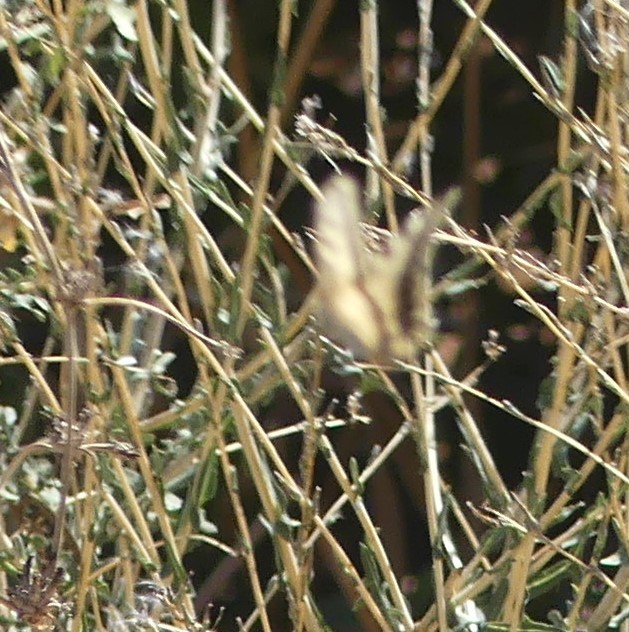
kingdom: Animalia
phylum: Arthropoda
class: Insecta
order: Lepidoptera
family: Papilionidae
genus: Papilio
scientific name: Papilio machaon
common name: Swallowtail
